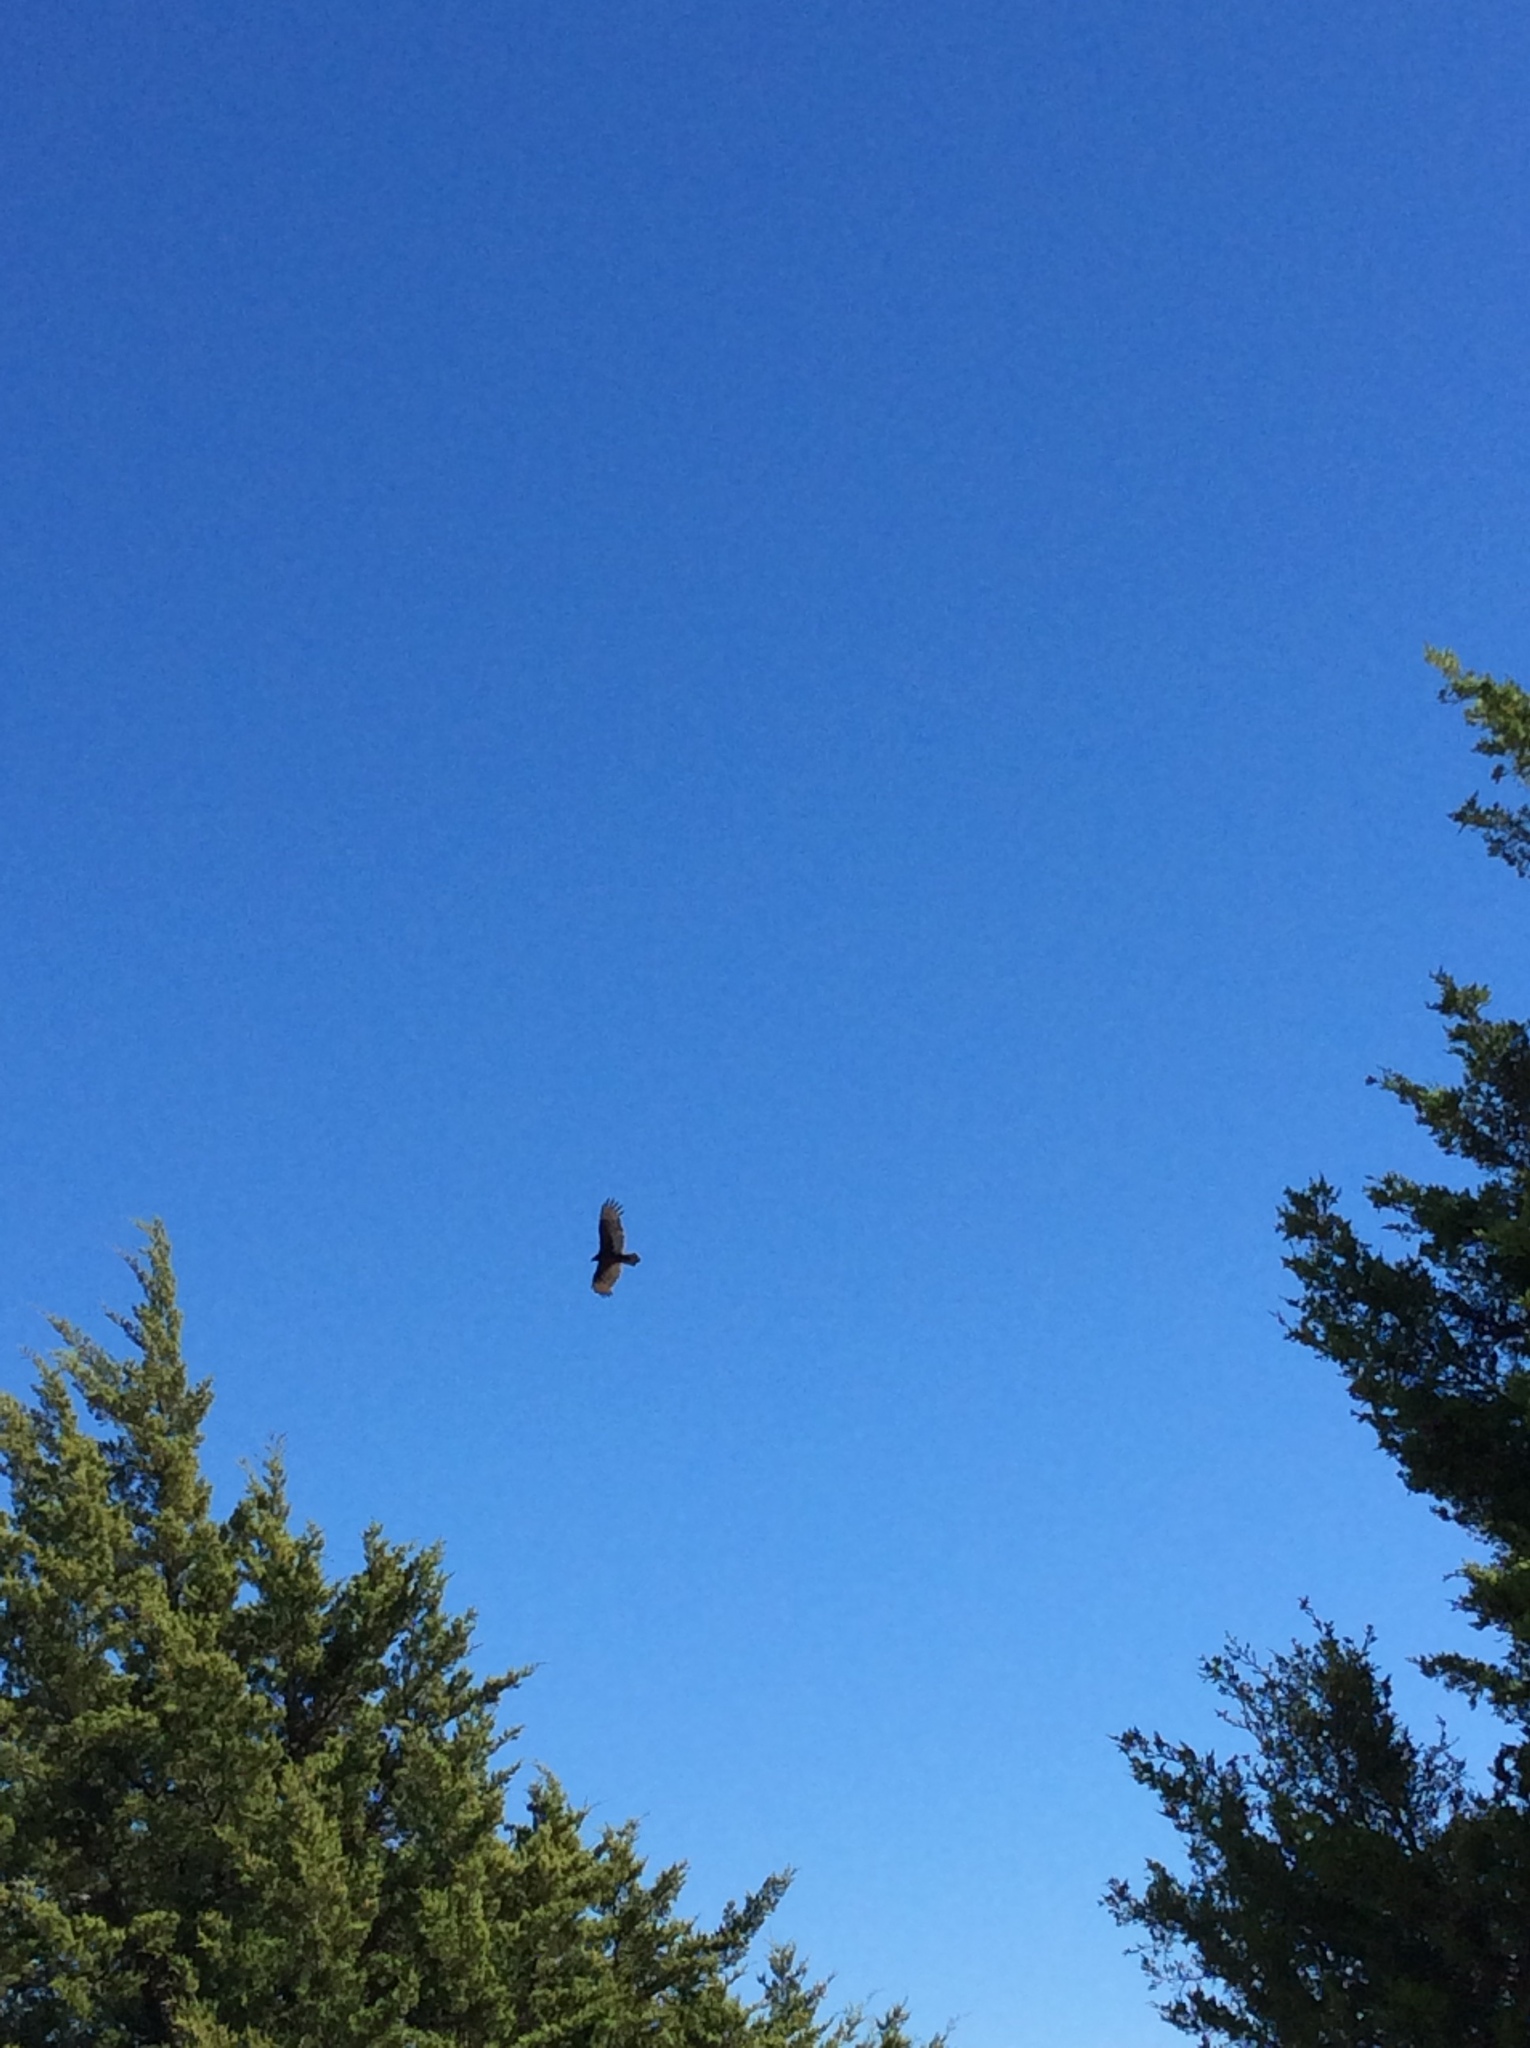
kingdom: Animalia
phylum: Chordata
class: Aves
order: Accipitriformes
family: Cathartidae
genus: Cathartes
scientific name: Cathartes aura
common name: Turkey vulture
